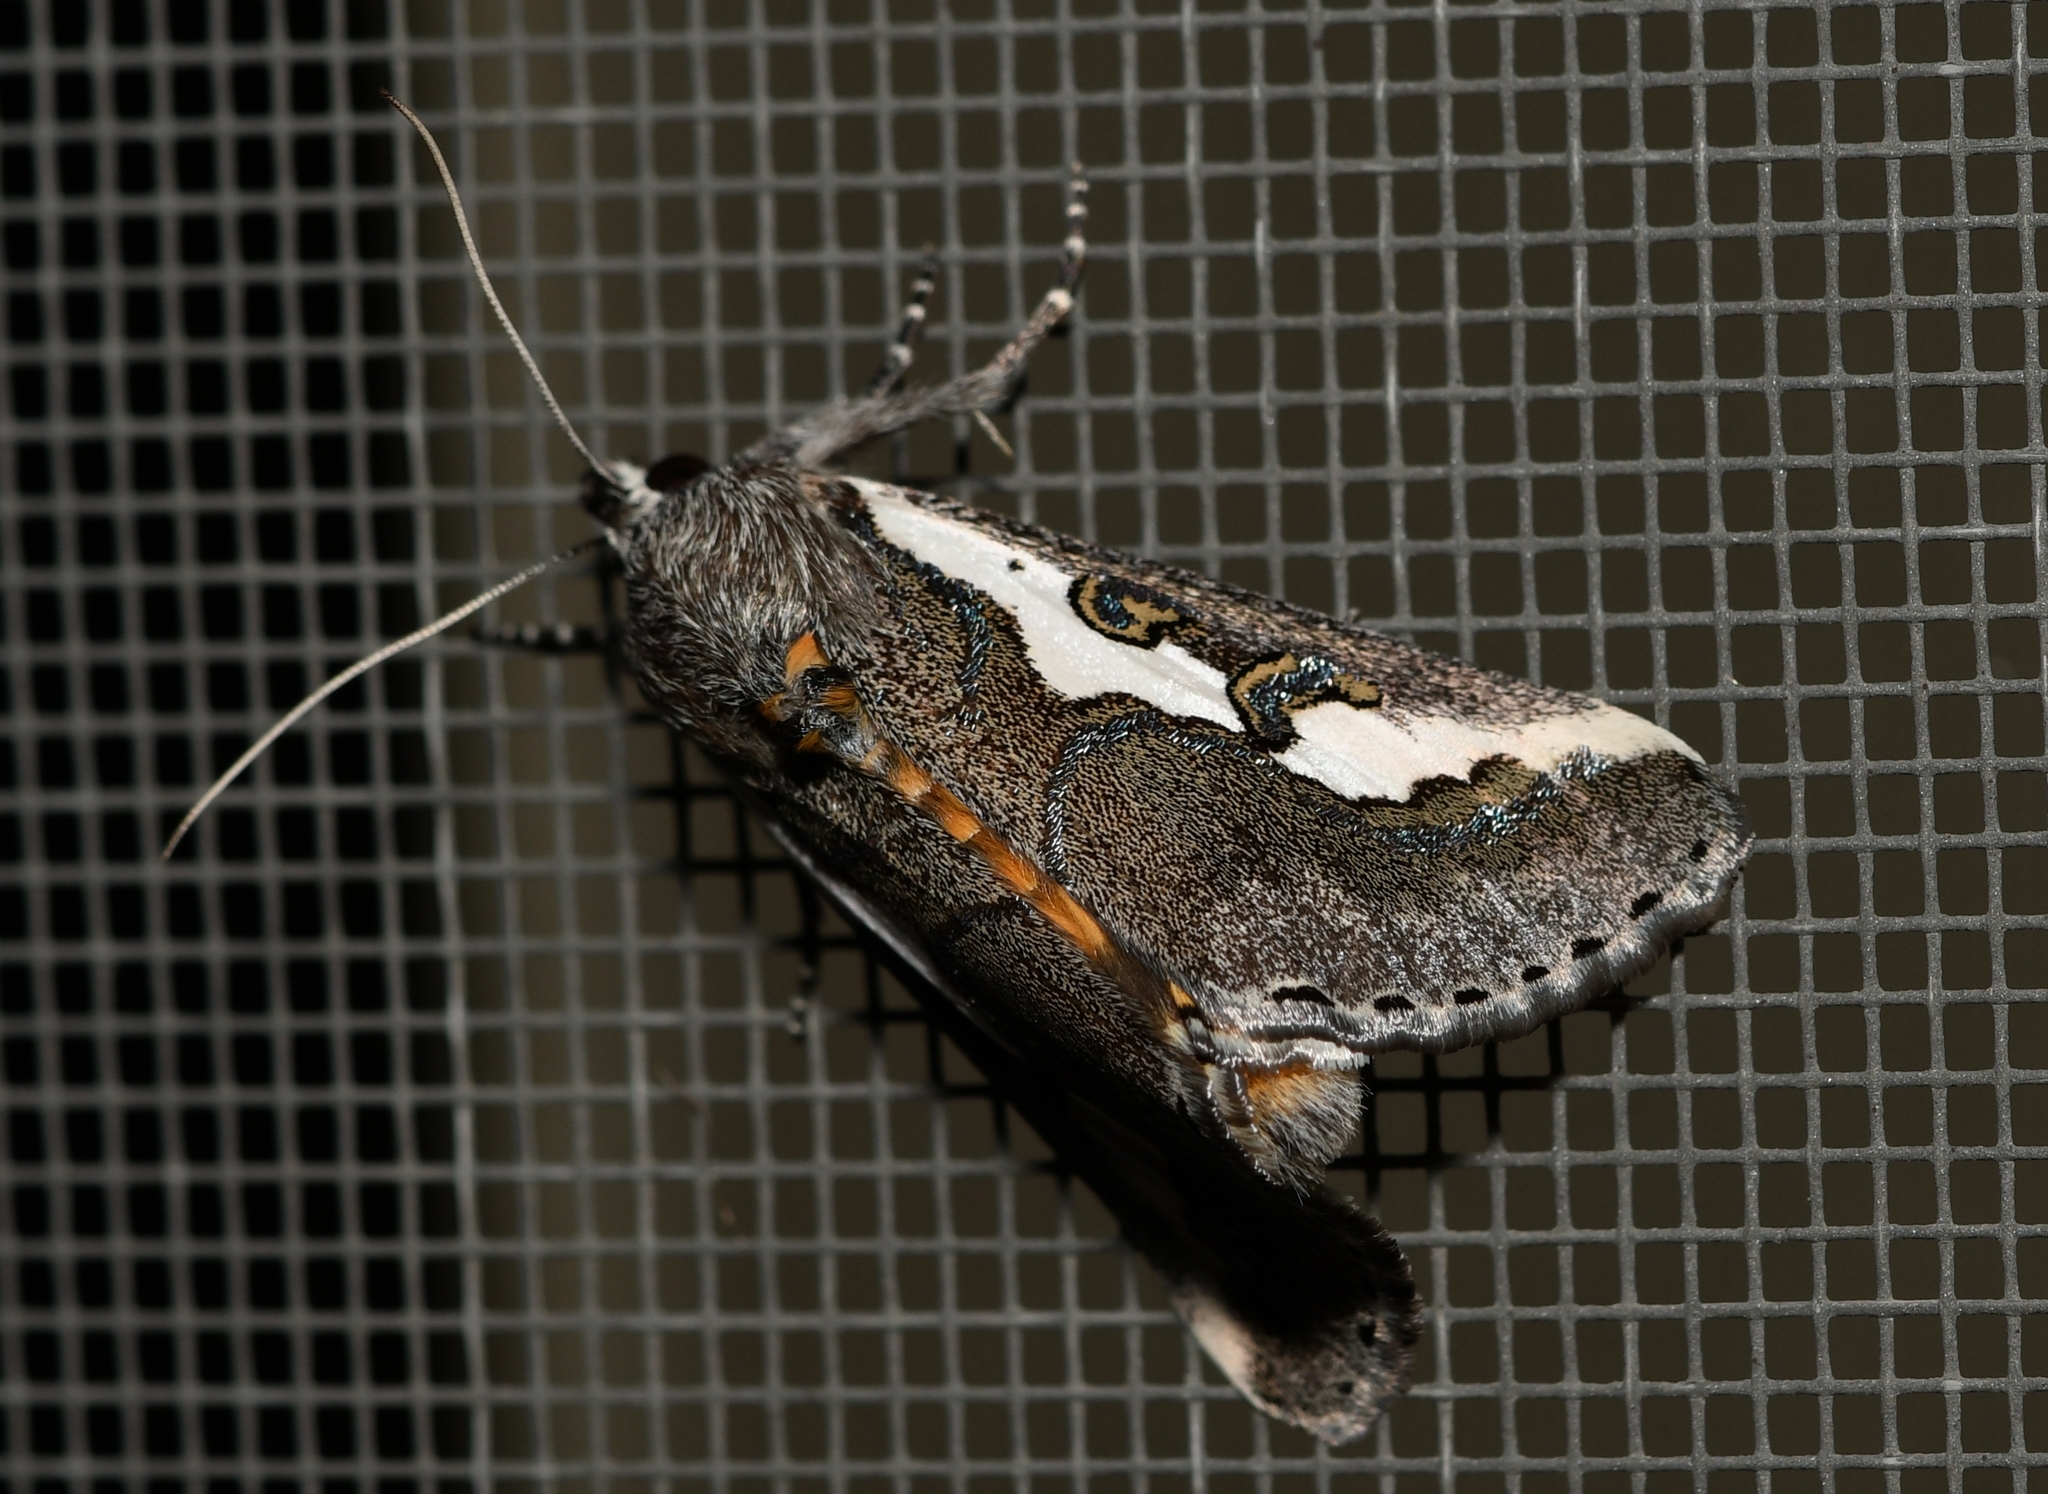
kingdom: Animalia
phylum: Arthropoda
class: Insecta
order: Lepidoptera
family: Noctuidae
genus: Euscirrhopterus
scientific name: Euscirrhopterus gloveri
